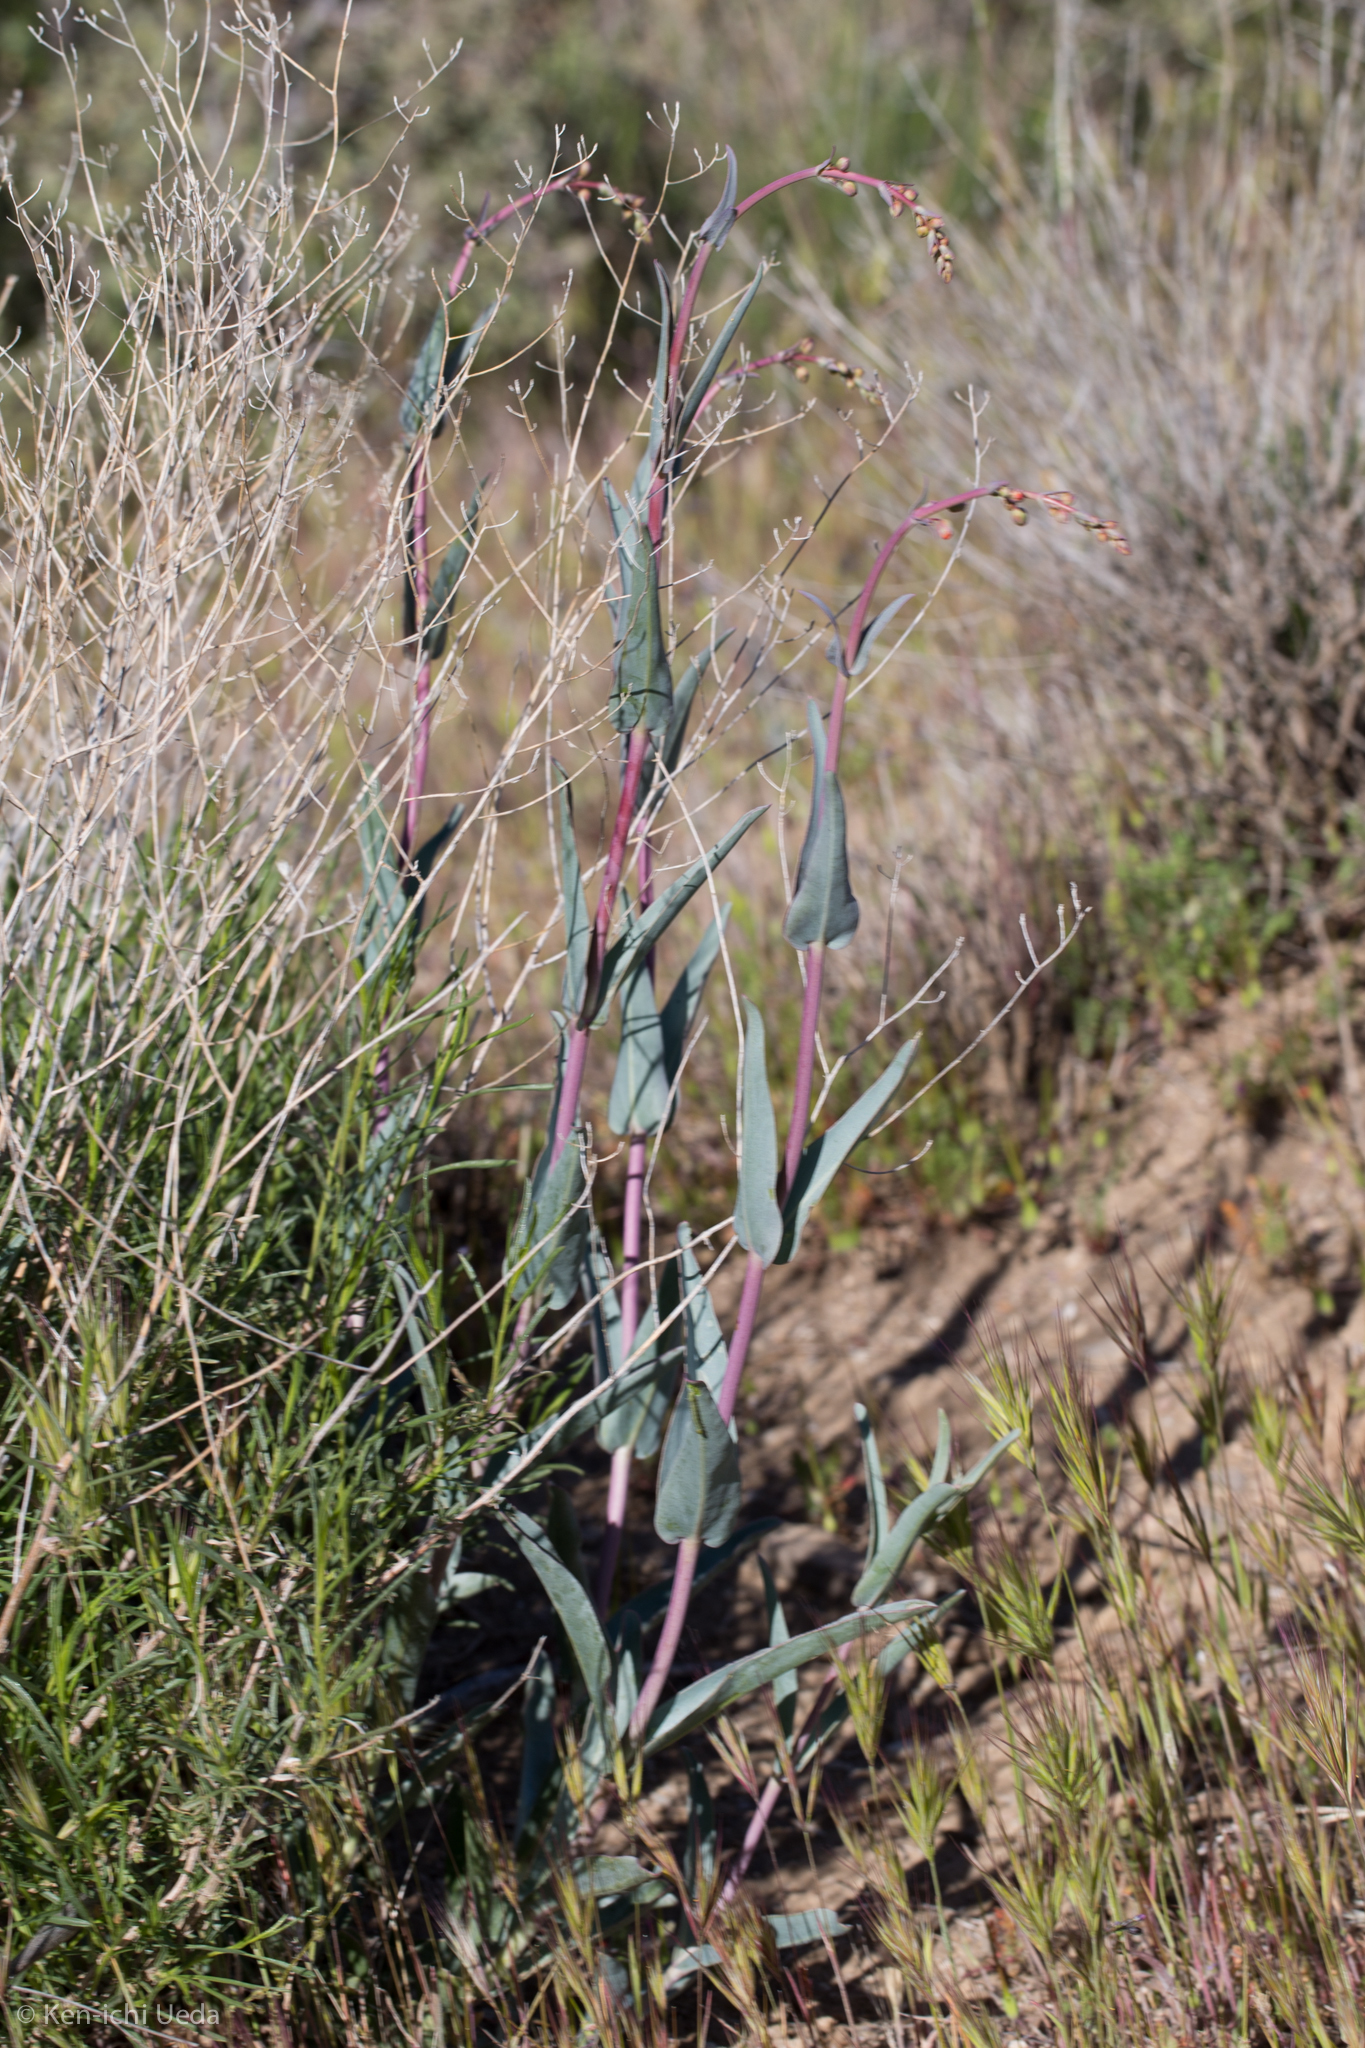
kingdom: Plantae
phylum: Tracheophyta
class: Magnoliopsida
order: Lamiales
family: Plantaginaceae
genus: Penstemon
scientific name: Penstemon centranthifolius
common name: Scarlet bugler
